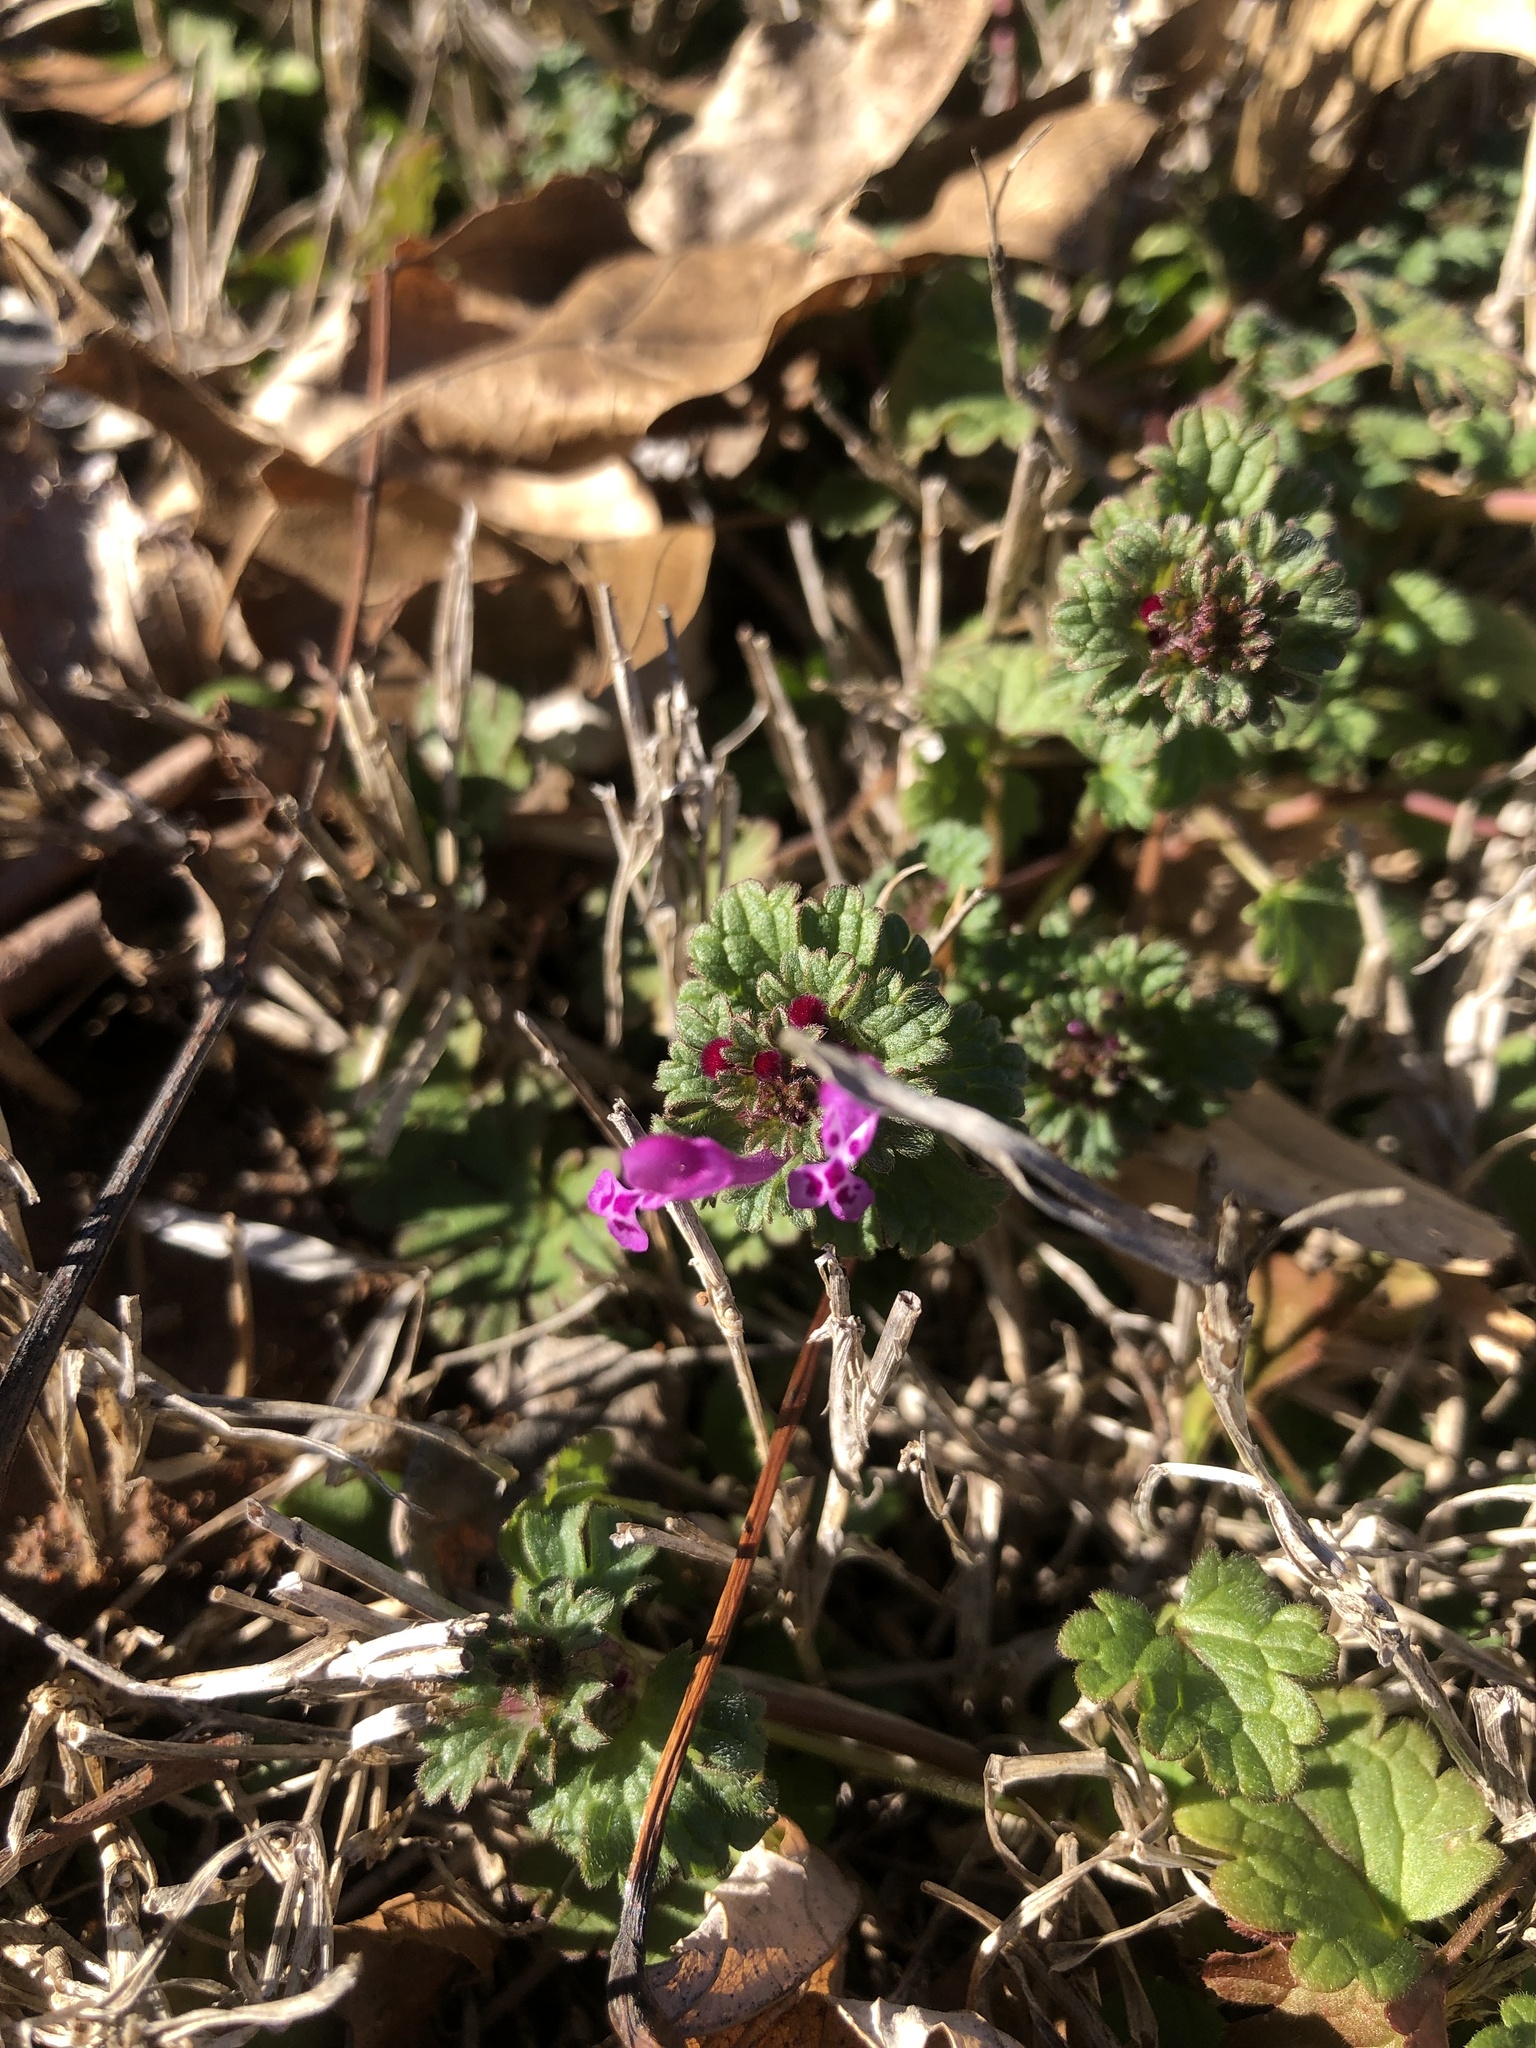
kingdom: Plantae
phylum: Tracheophyta
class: Magnoliopsida
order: Lamiales
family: Lamiaceae
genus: Lamium
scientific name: Lamium amplexicaule
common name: Henbit dead-nettle
